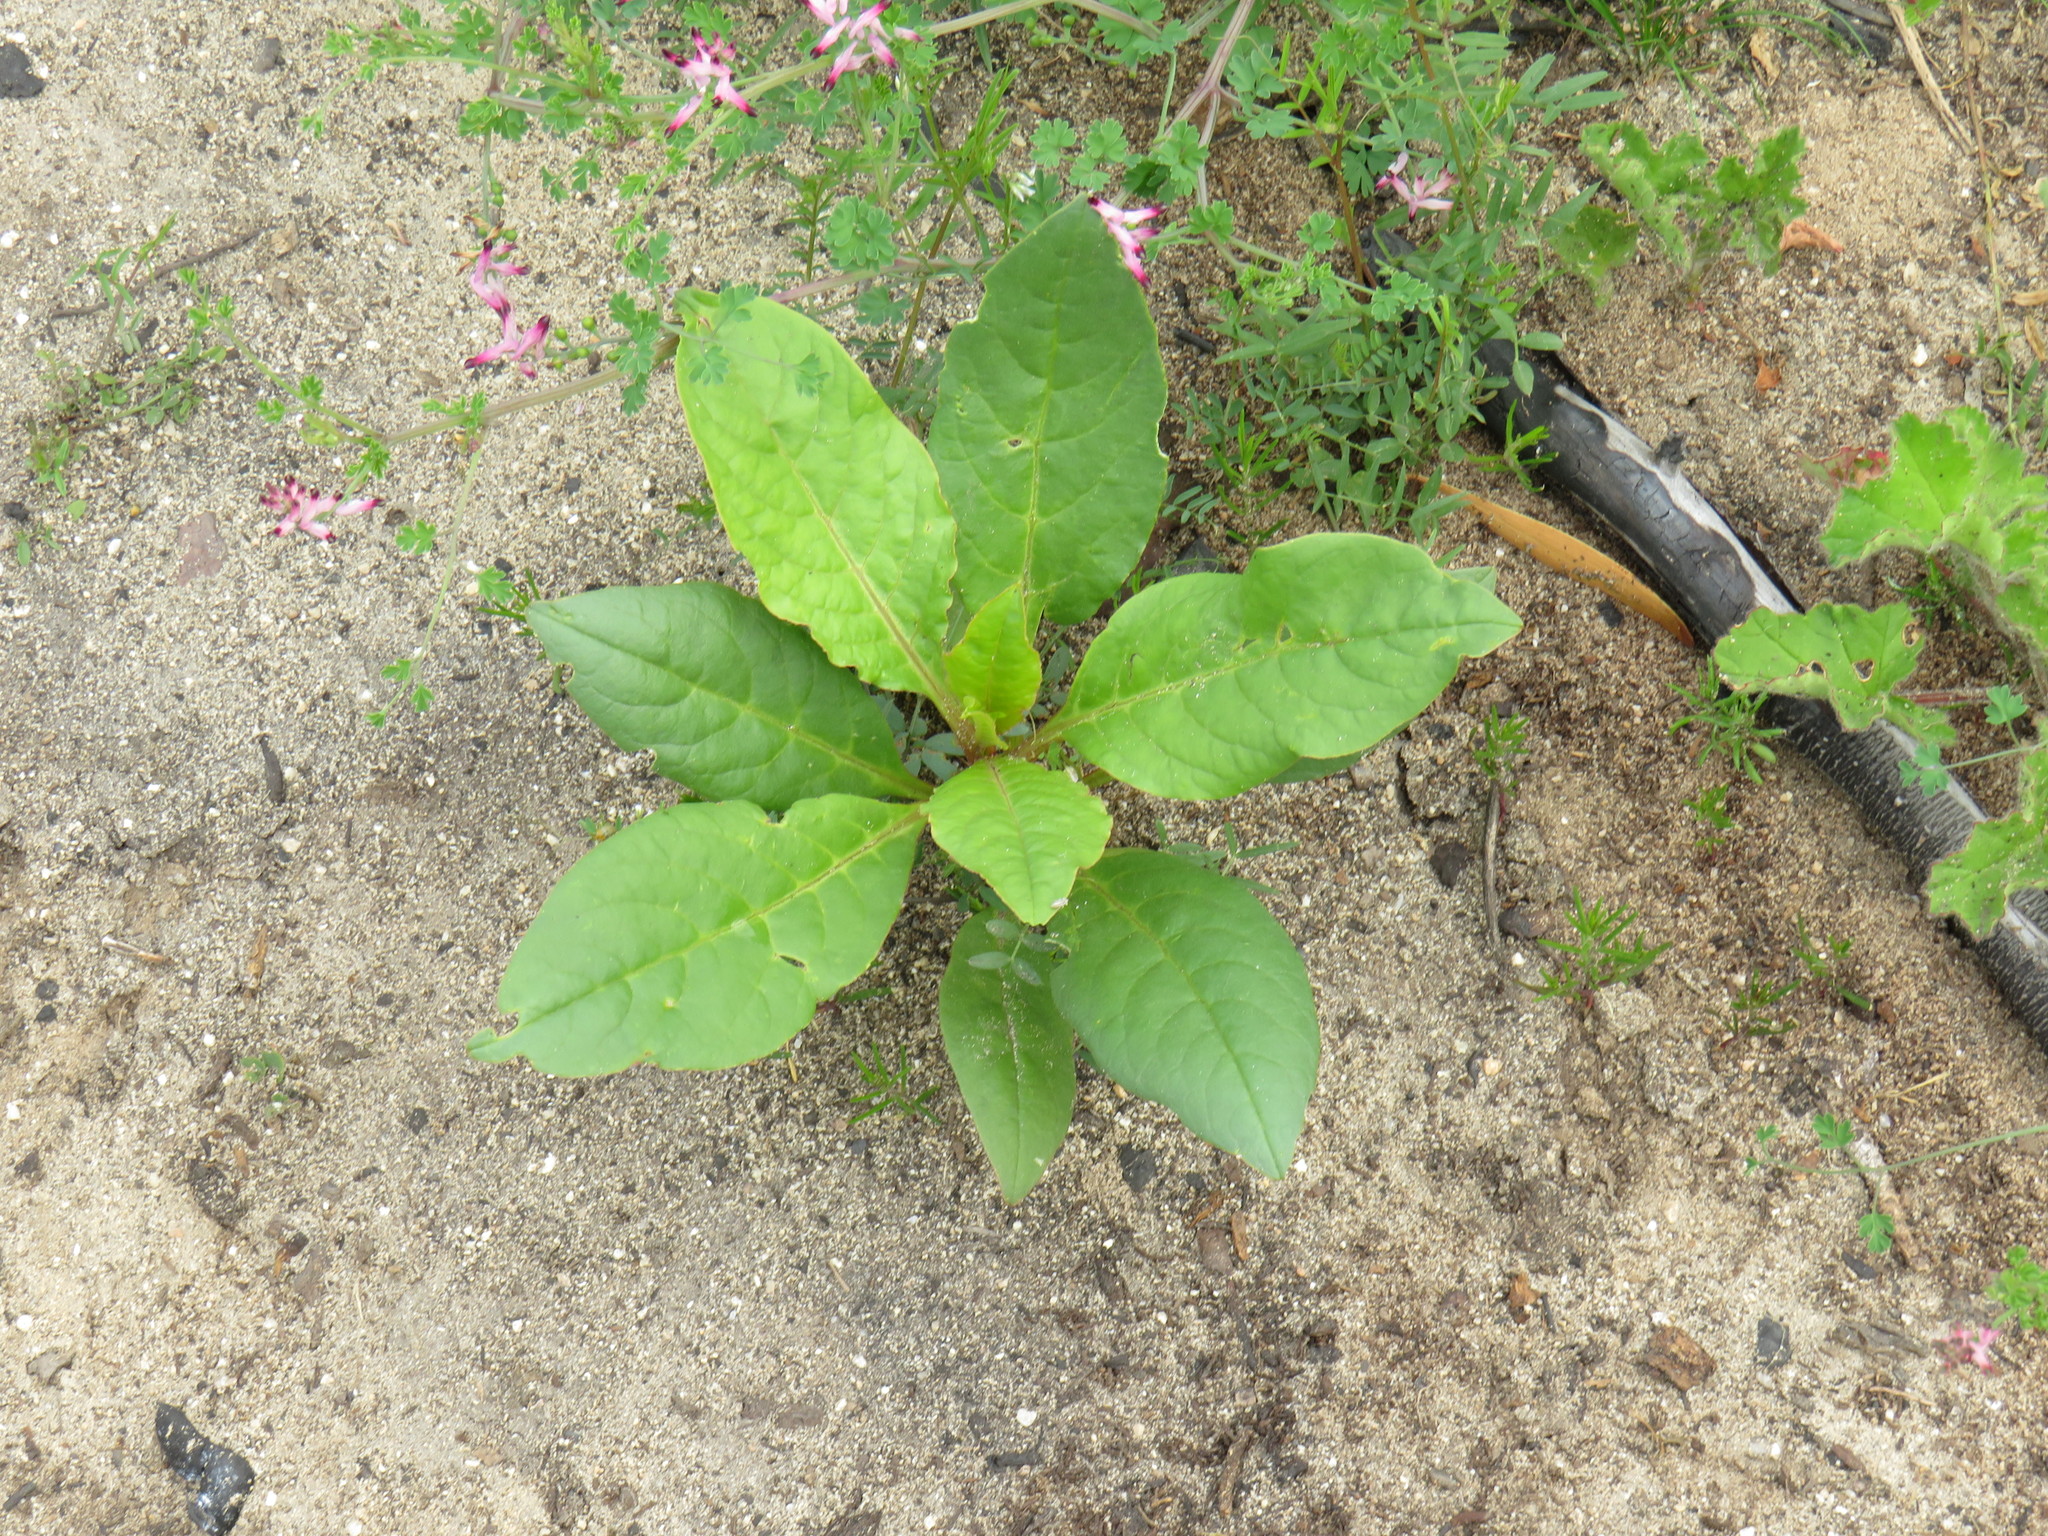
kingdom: Plantae
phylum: Tracheophyta
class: Magnoliopsida
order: Caryophyllales
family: Phytolaccaceae
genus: Phytolacca
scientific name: Phytolacca icosandra
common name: Button pokeweed
